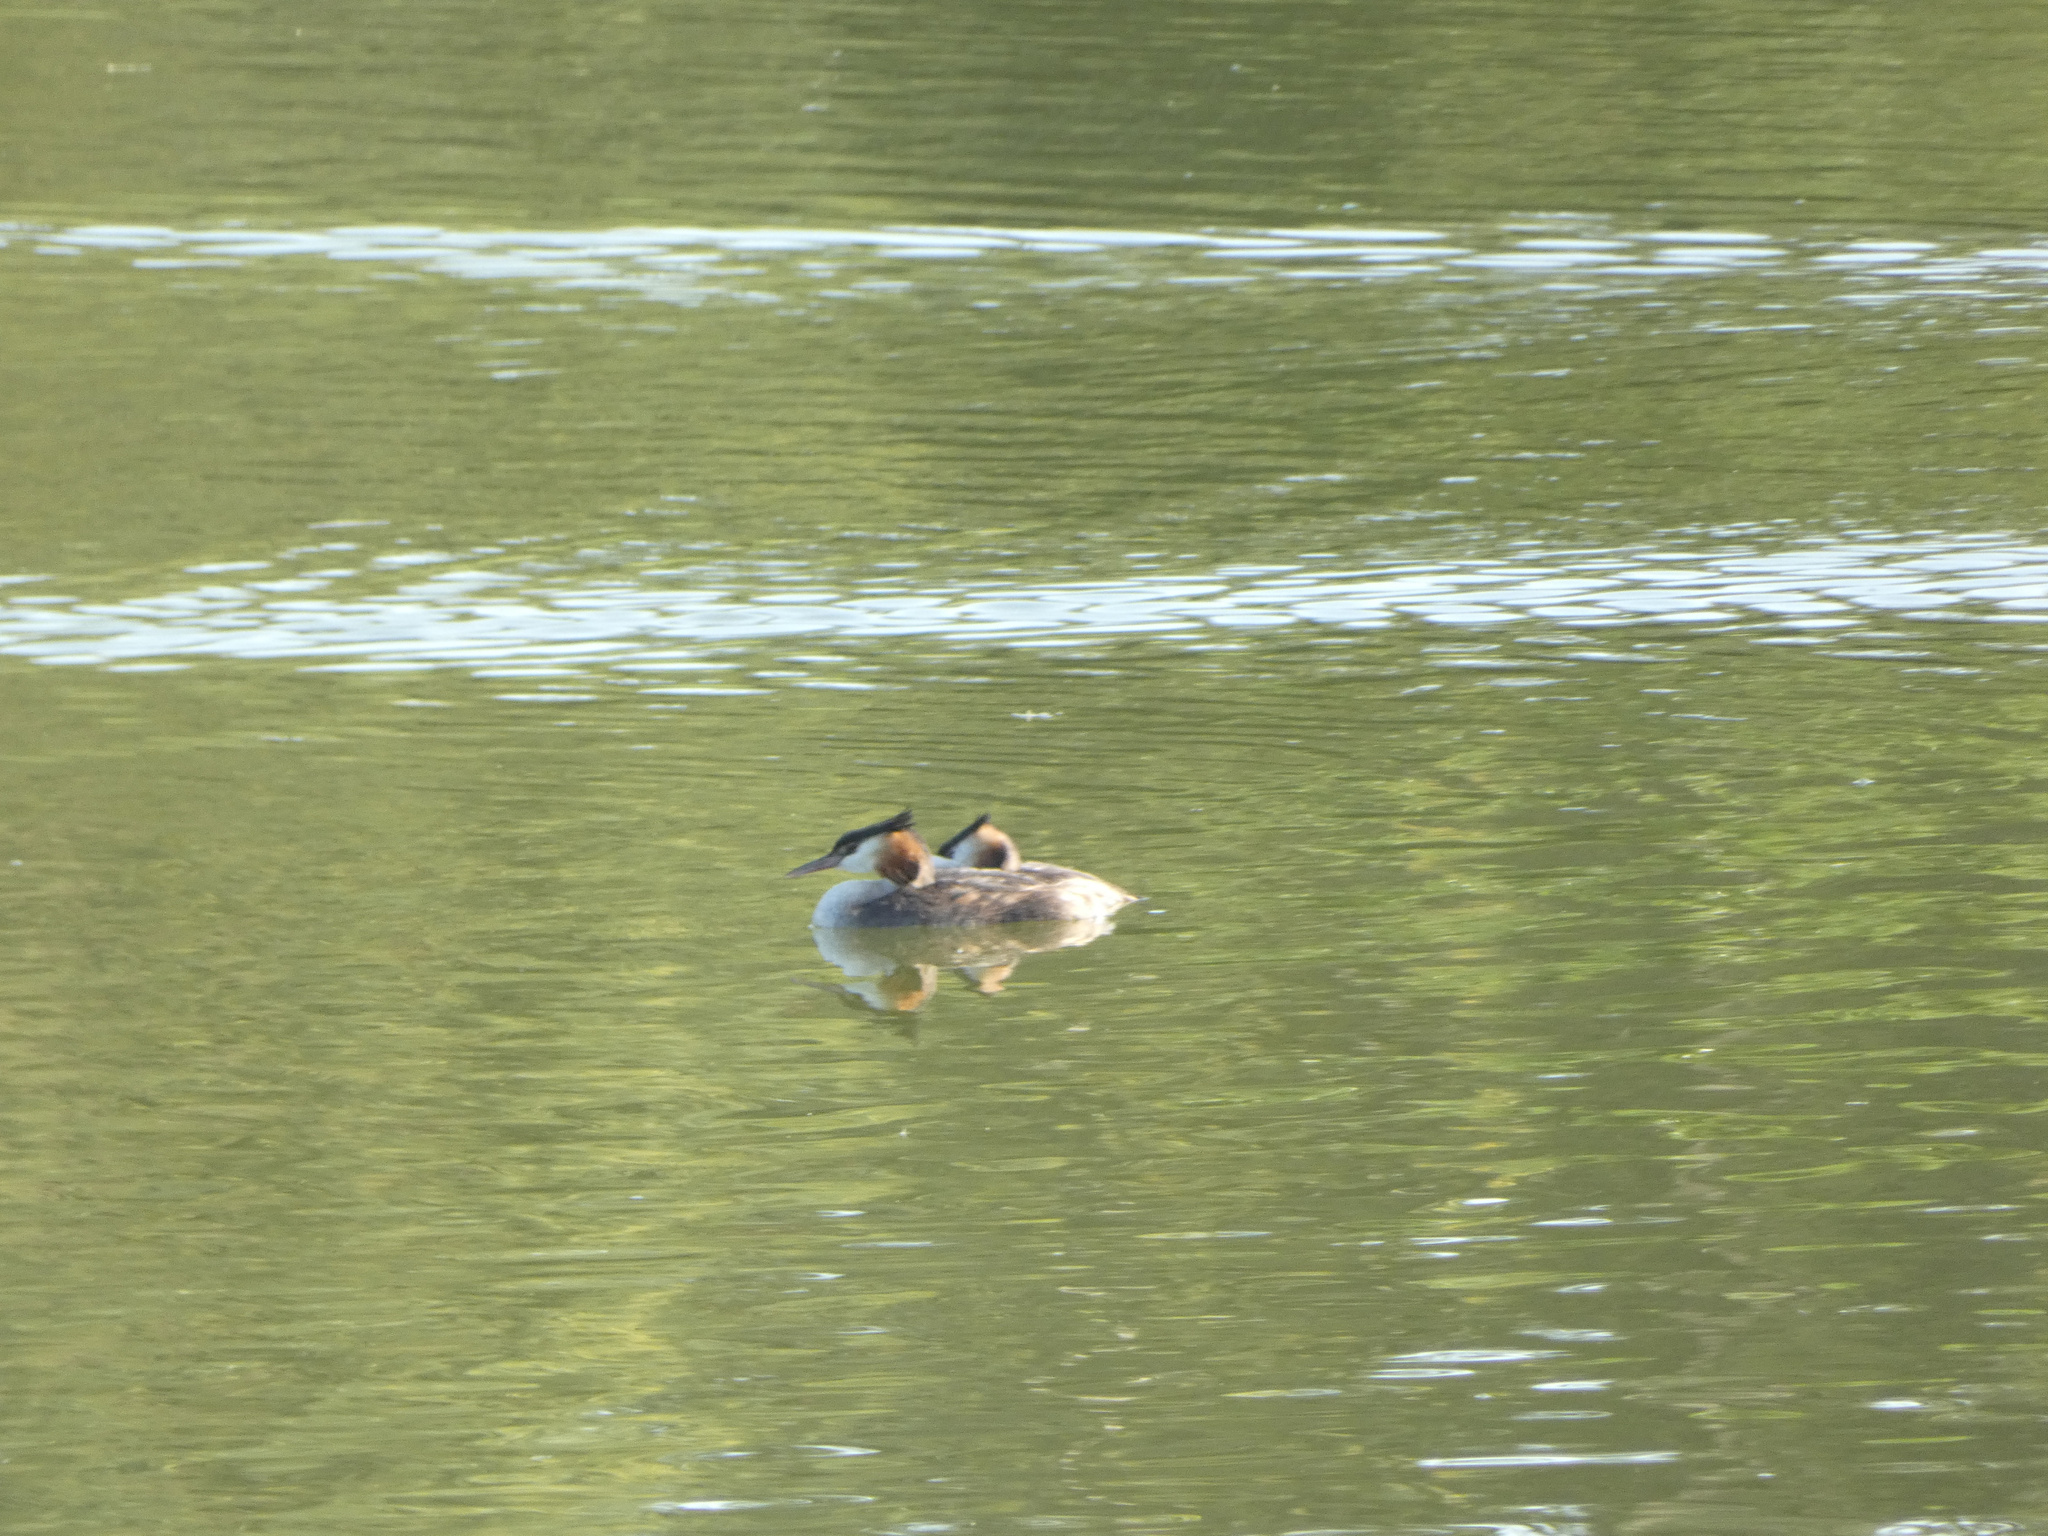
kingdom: Animalia
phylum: Chordata
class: Aves
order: Podicipediformes
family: Podicipedidae
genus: Podiceps
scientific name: Podiceps cristatus
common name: Great crested grebe
